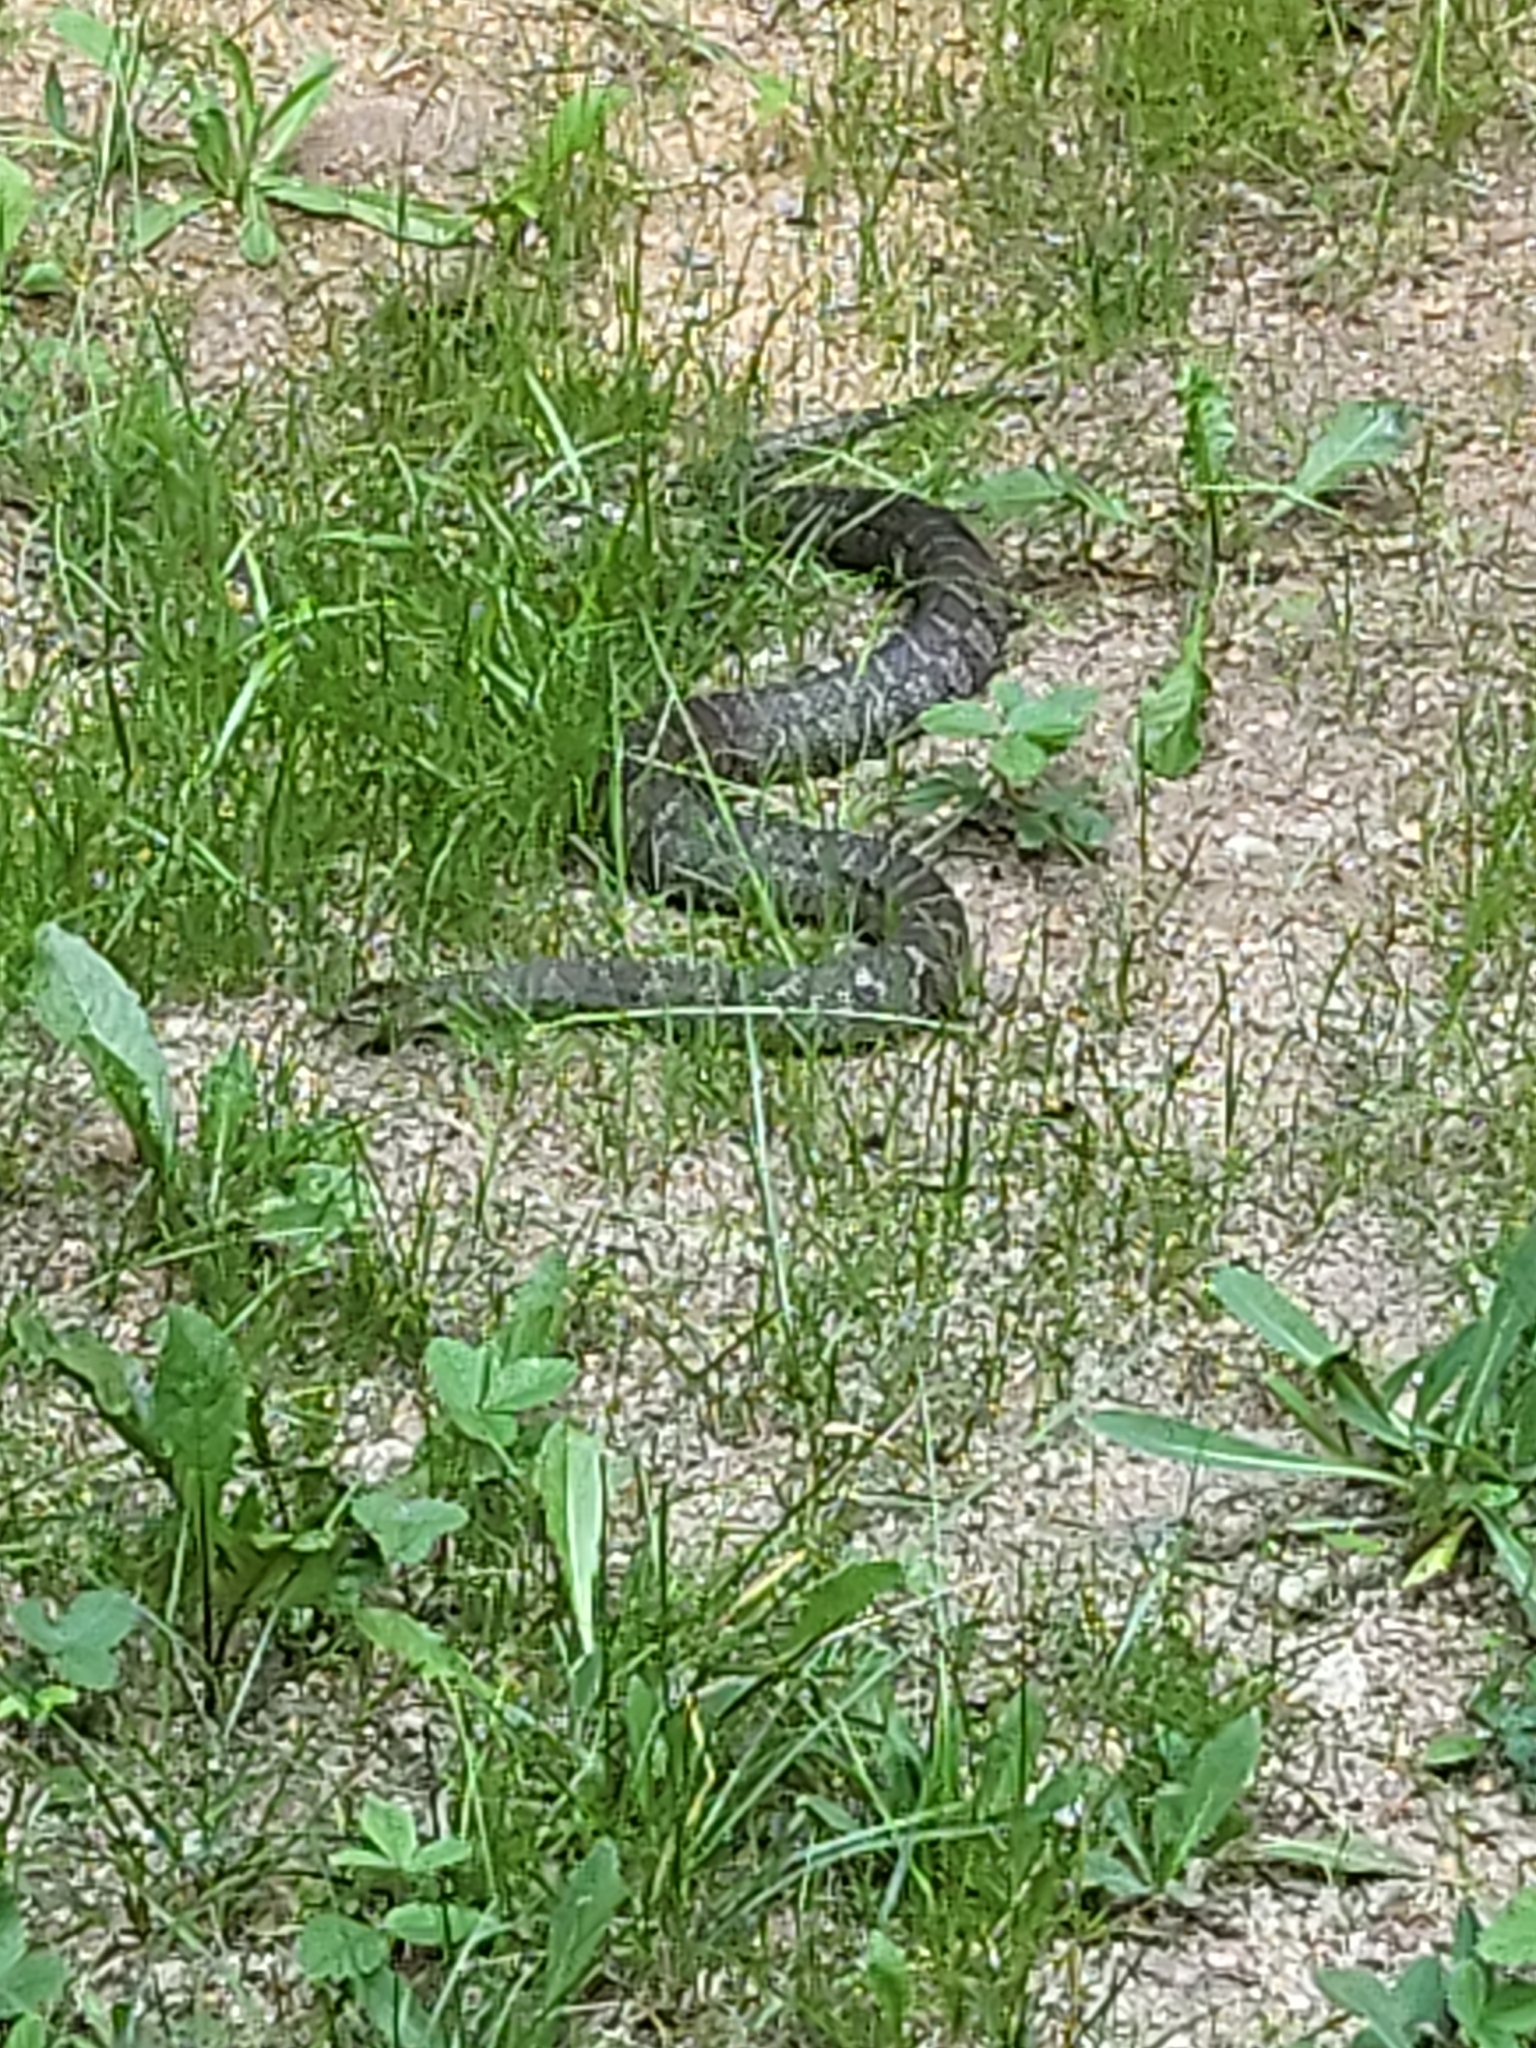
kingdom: Animalia
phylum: Chordata
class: Squamata
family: Colubridae
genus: Nerodia
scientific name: Nerodia sipedon
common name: Northern water snake
